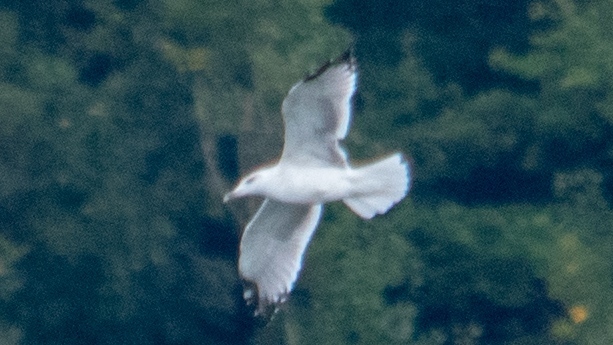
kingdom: Animalia
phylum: Chordata
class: Aves
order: Charadriiformes
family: Laridae
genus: Larus
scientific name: Larus michahellis
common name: Yellow-legged gull
